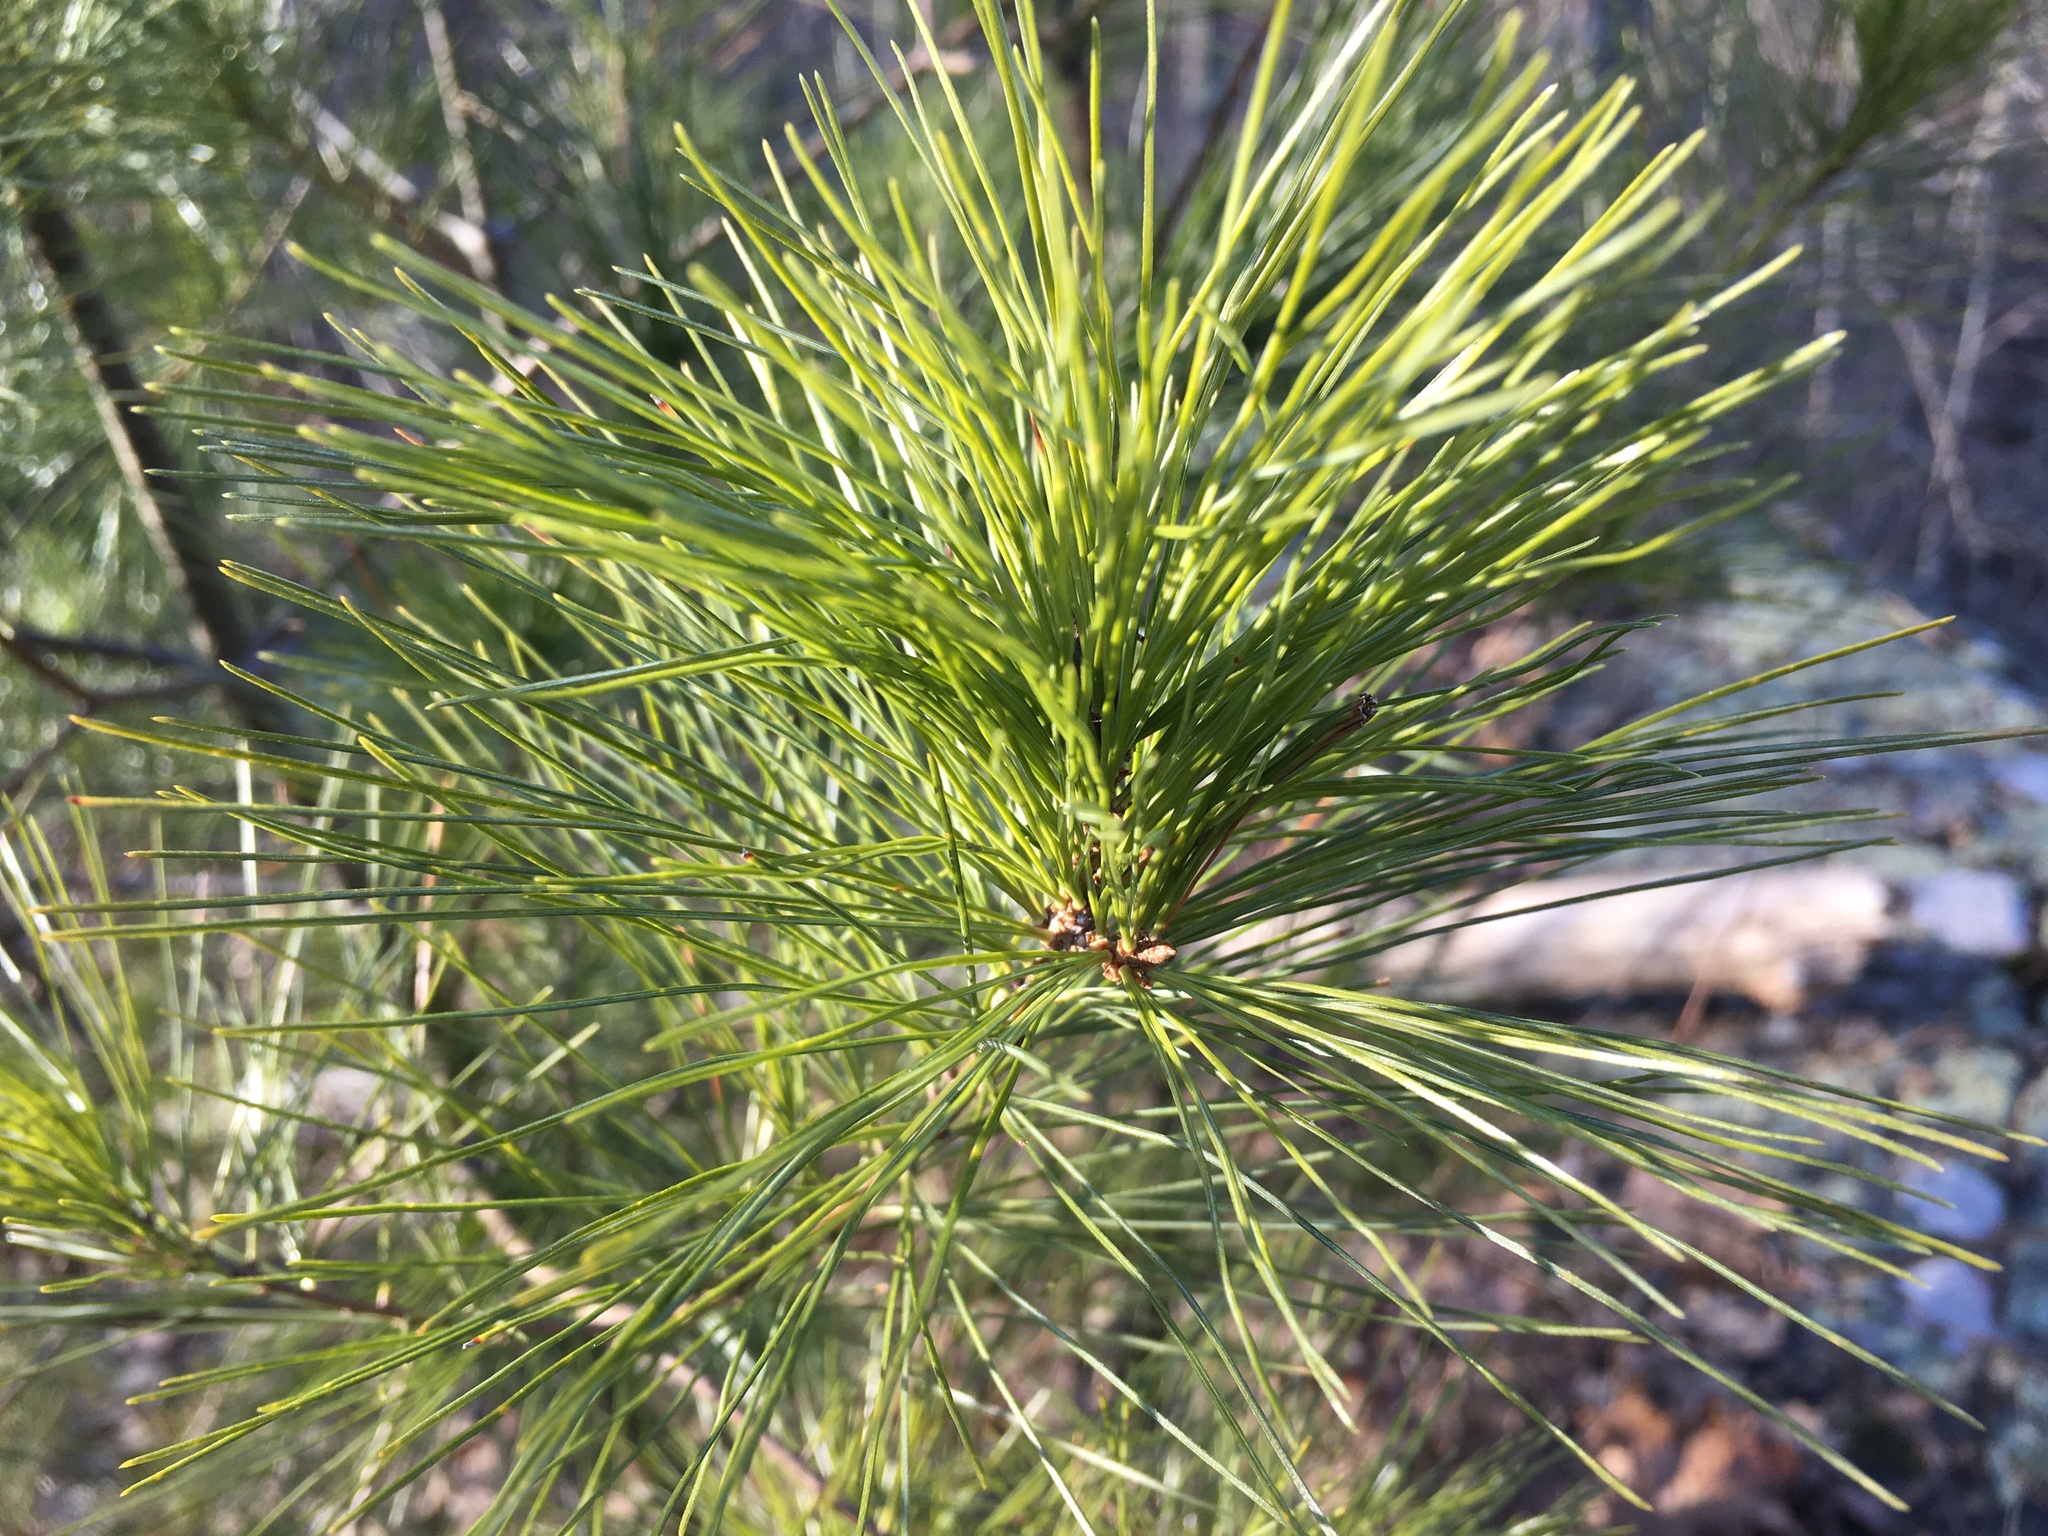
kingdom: Plantae
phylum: Tracheophyta
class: Pinopsida
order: Pinales
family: Pinaceae
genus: Pinus
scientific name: Pinus strobus
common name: Weymouth pine
